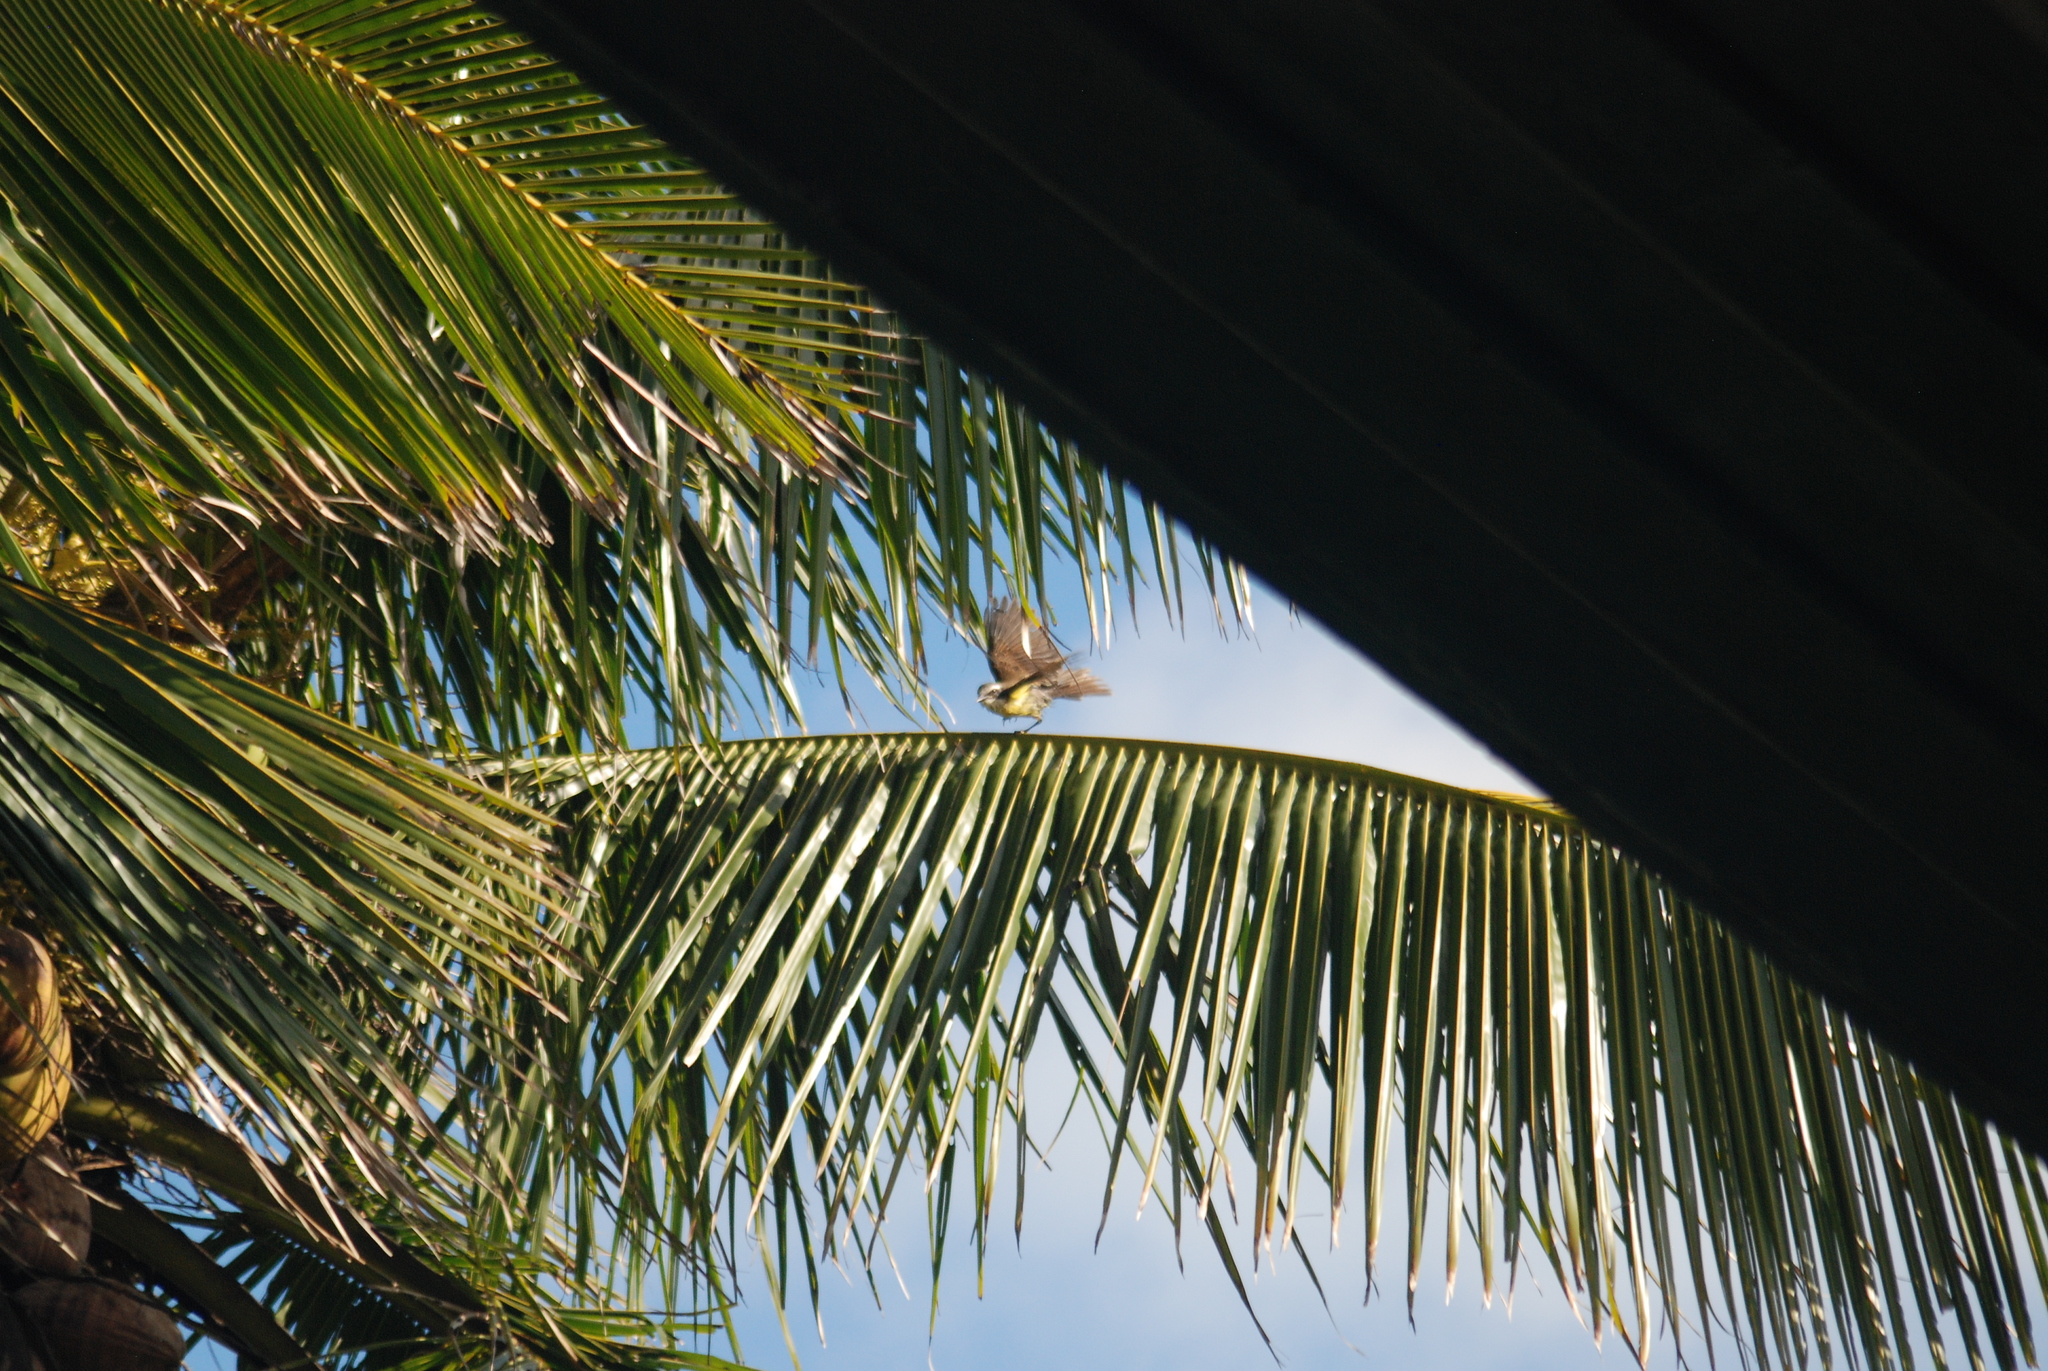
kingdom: Animalia
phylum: Chordata
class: Aves
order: Passeriformes
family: Tyrannidae
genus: Pitangus
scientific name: Pitangus sulphuratus
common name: Great kiskadee
